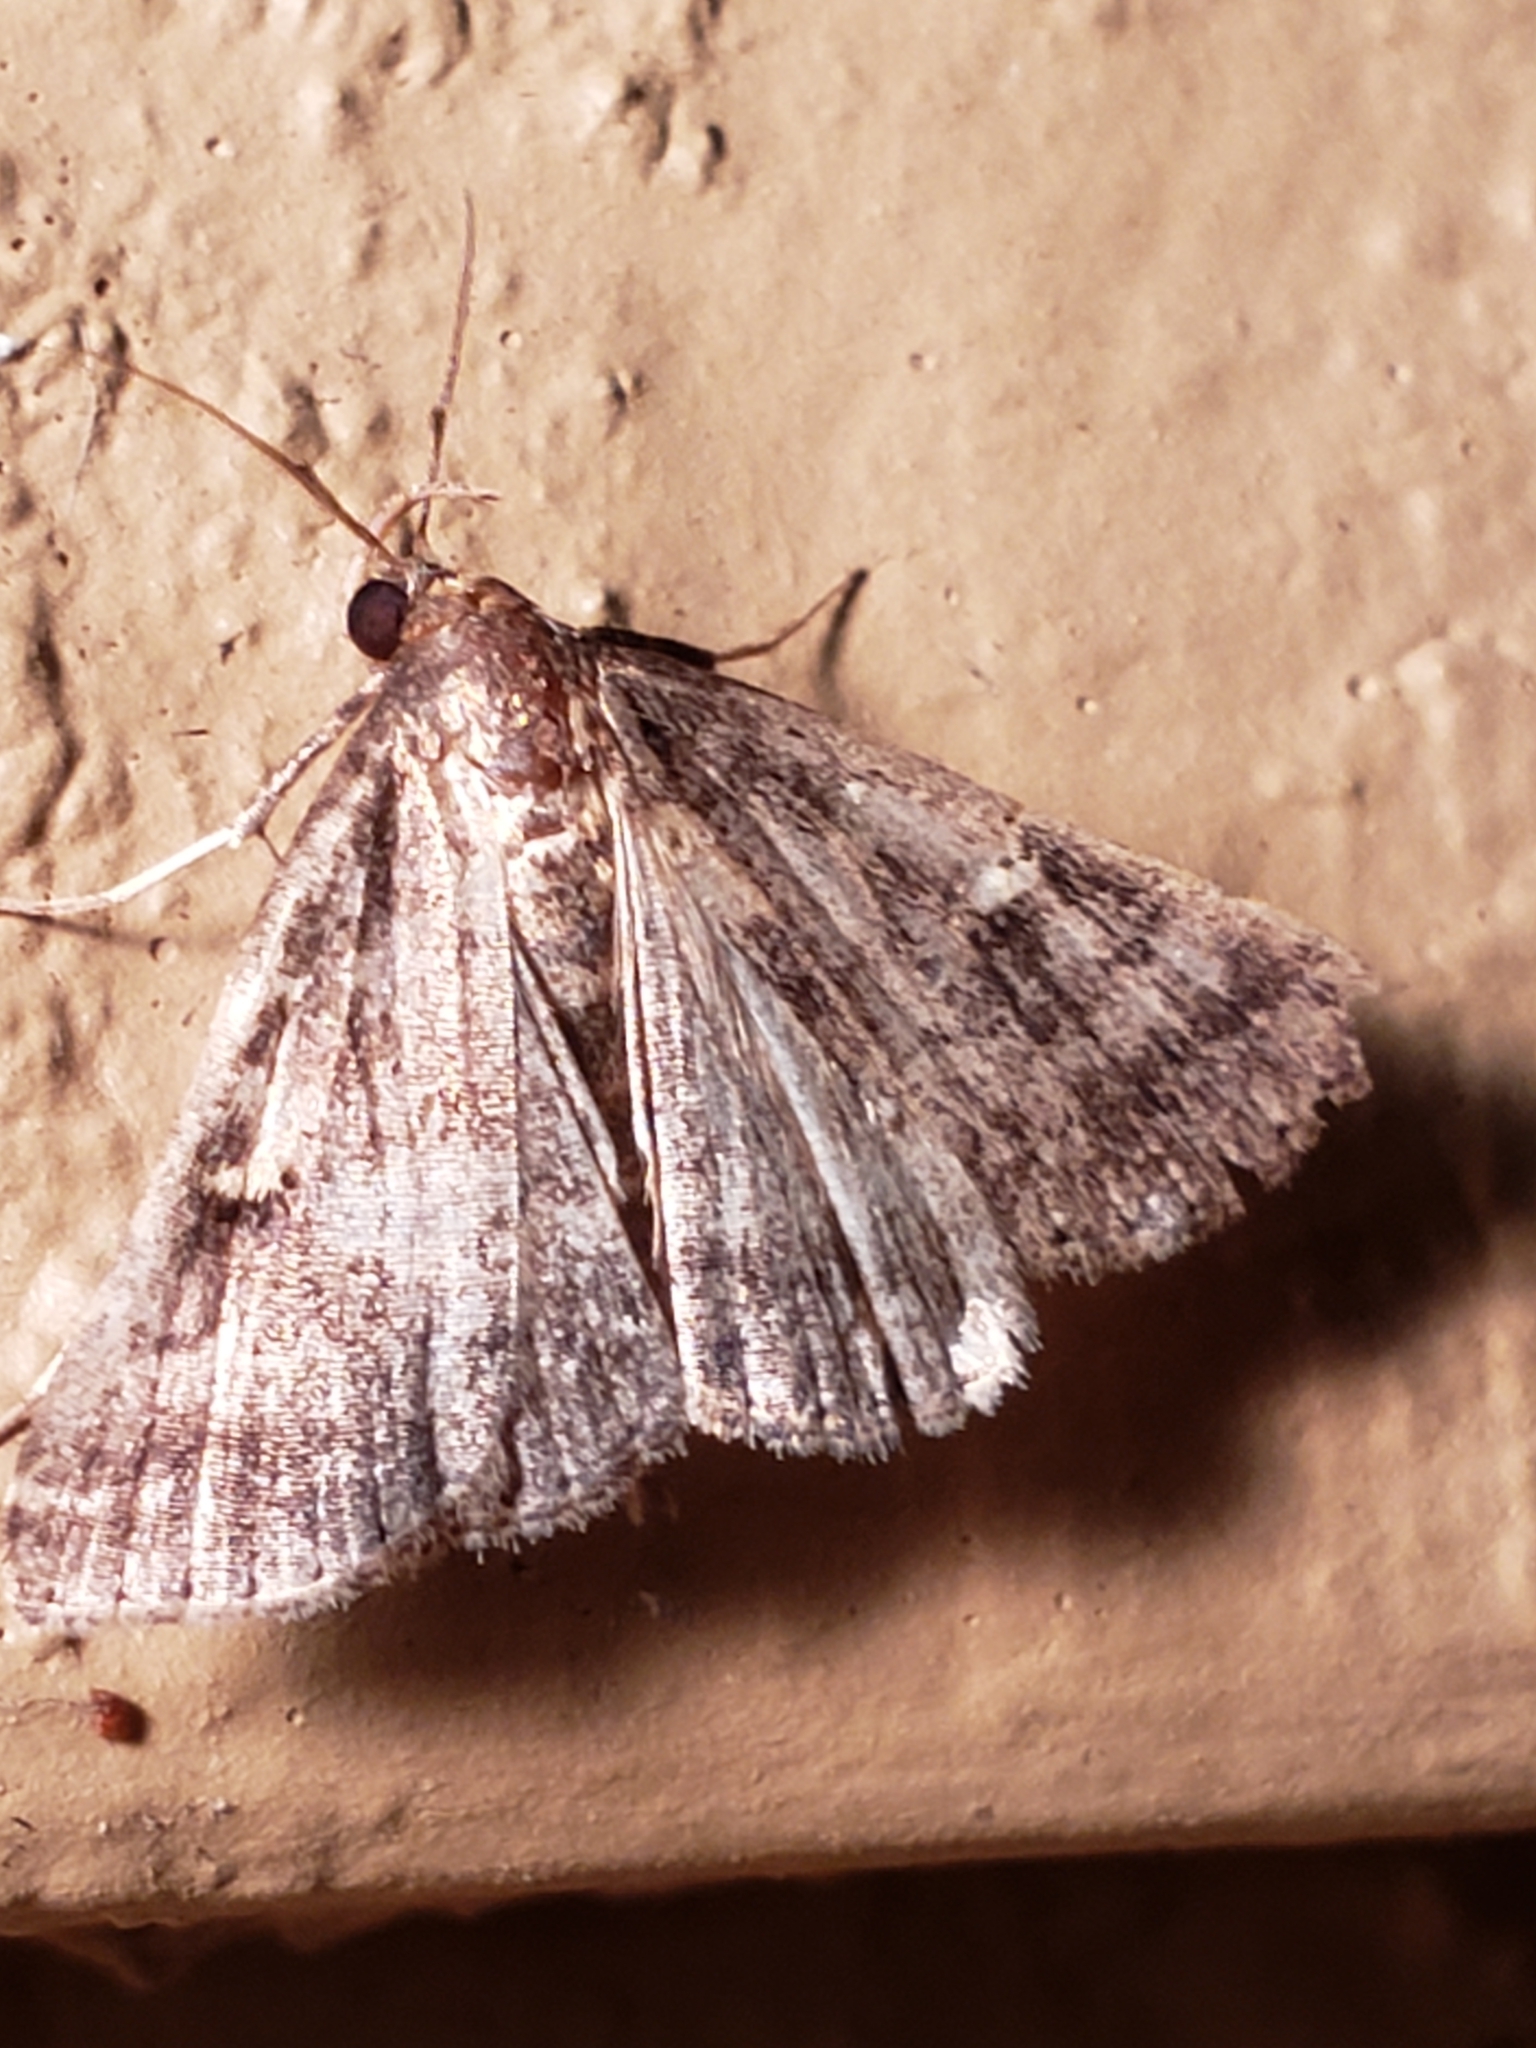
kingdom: Animalia
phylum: Chordata
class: Amphibia
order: Anura
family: Hylidae
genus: Dryophytes
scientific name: Dryophytes versicolor
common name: Gray treefrog
